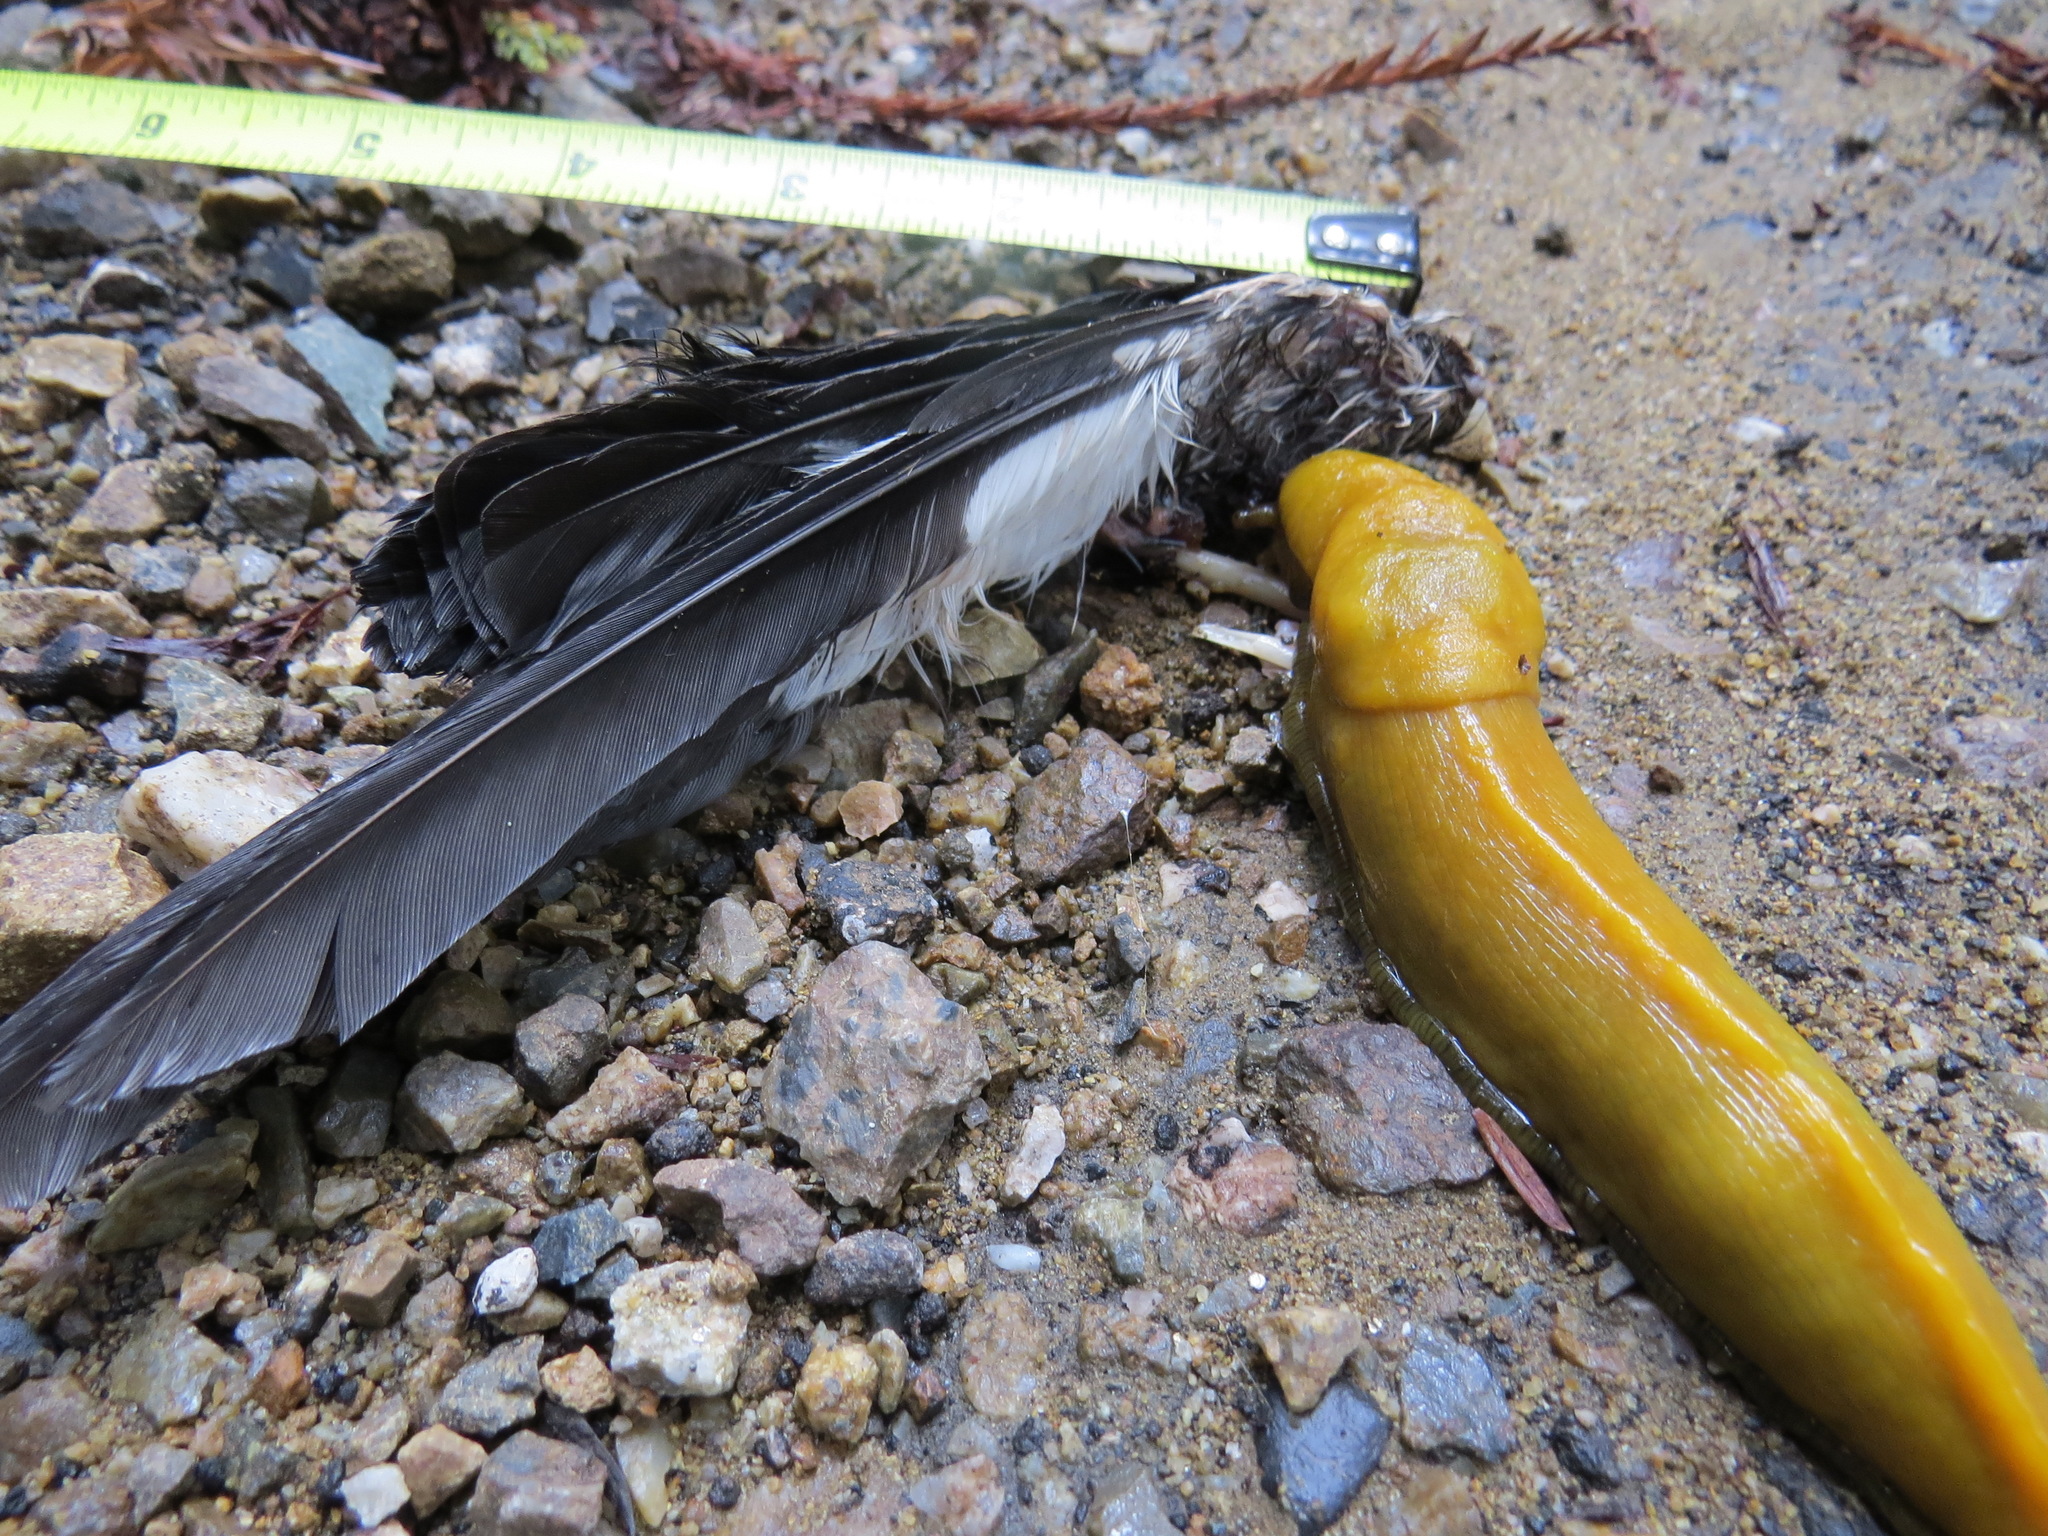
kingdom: Animalia
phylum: Chordata
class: Aves
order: Piciformes
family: Picidae
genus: Melanerpes
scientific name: Melanerpes formicivorus
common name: Acorn woodpecker
